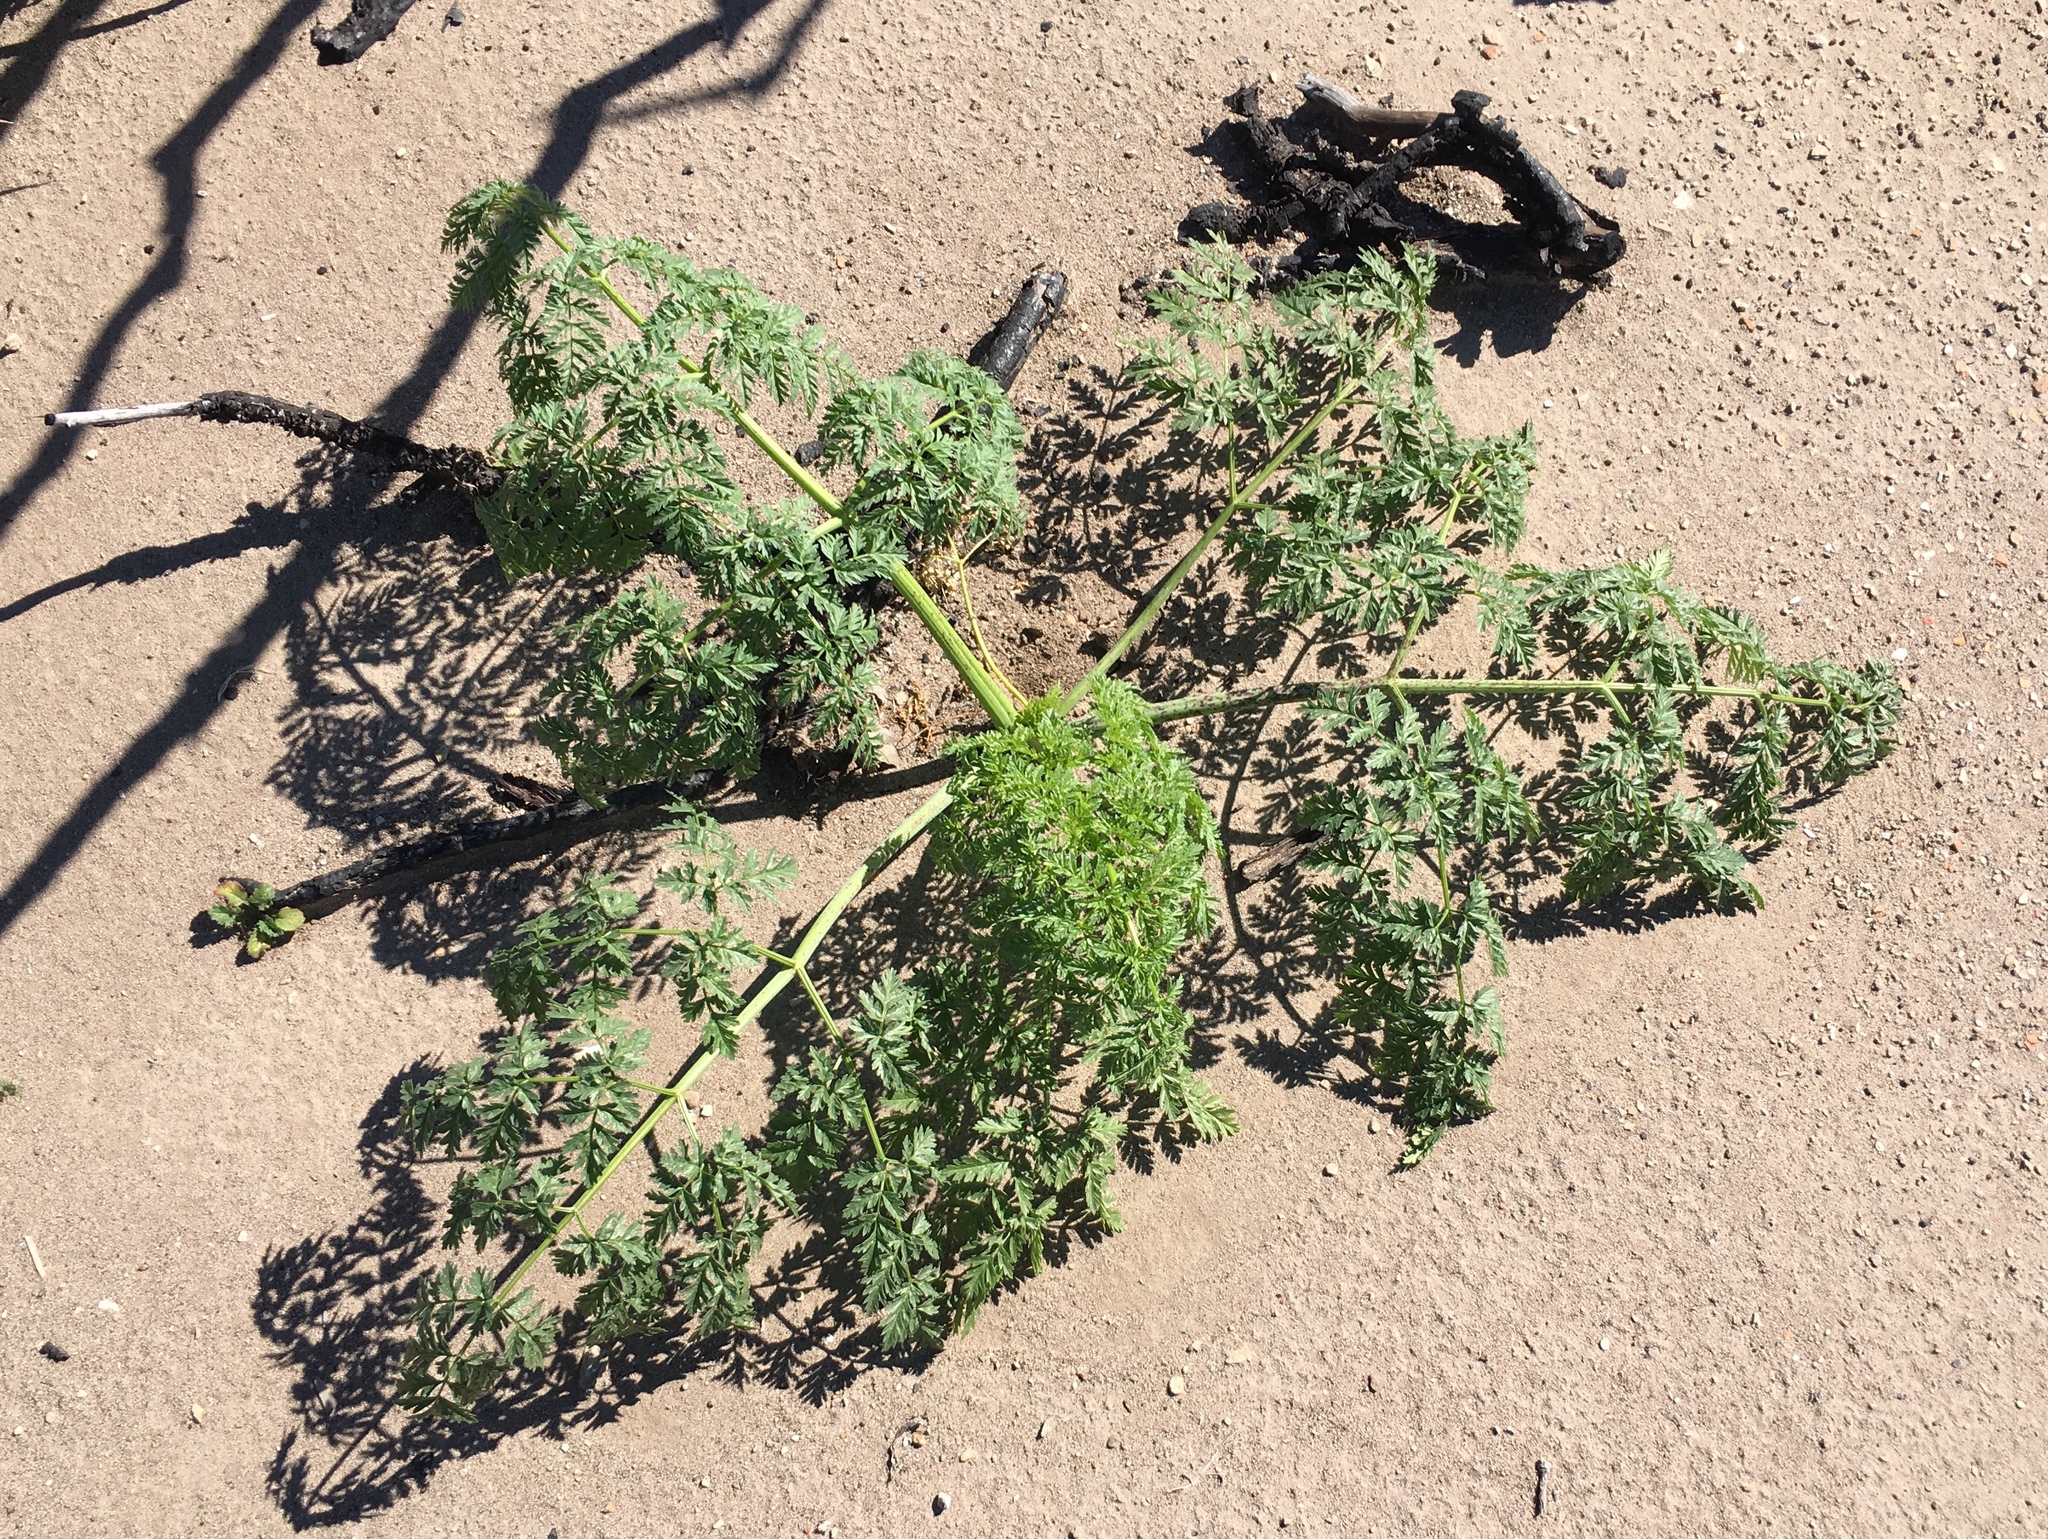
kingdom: Plantae
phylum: Tracheophyta
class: Magnoliopsida
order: Apiales
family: Apiaceae
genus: Conium
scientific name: Conium maculatum
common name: Hemlock
